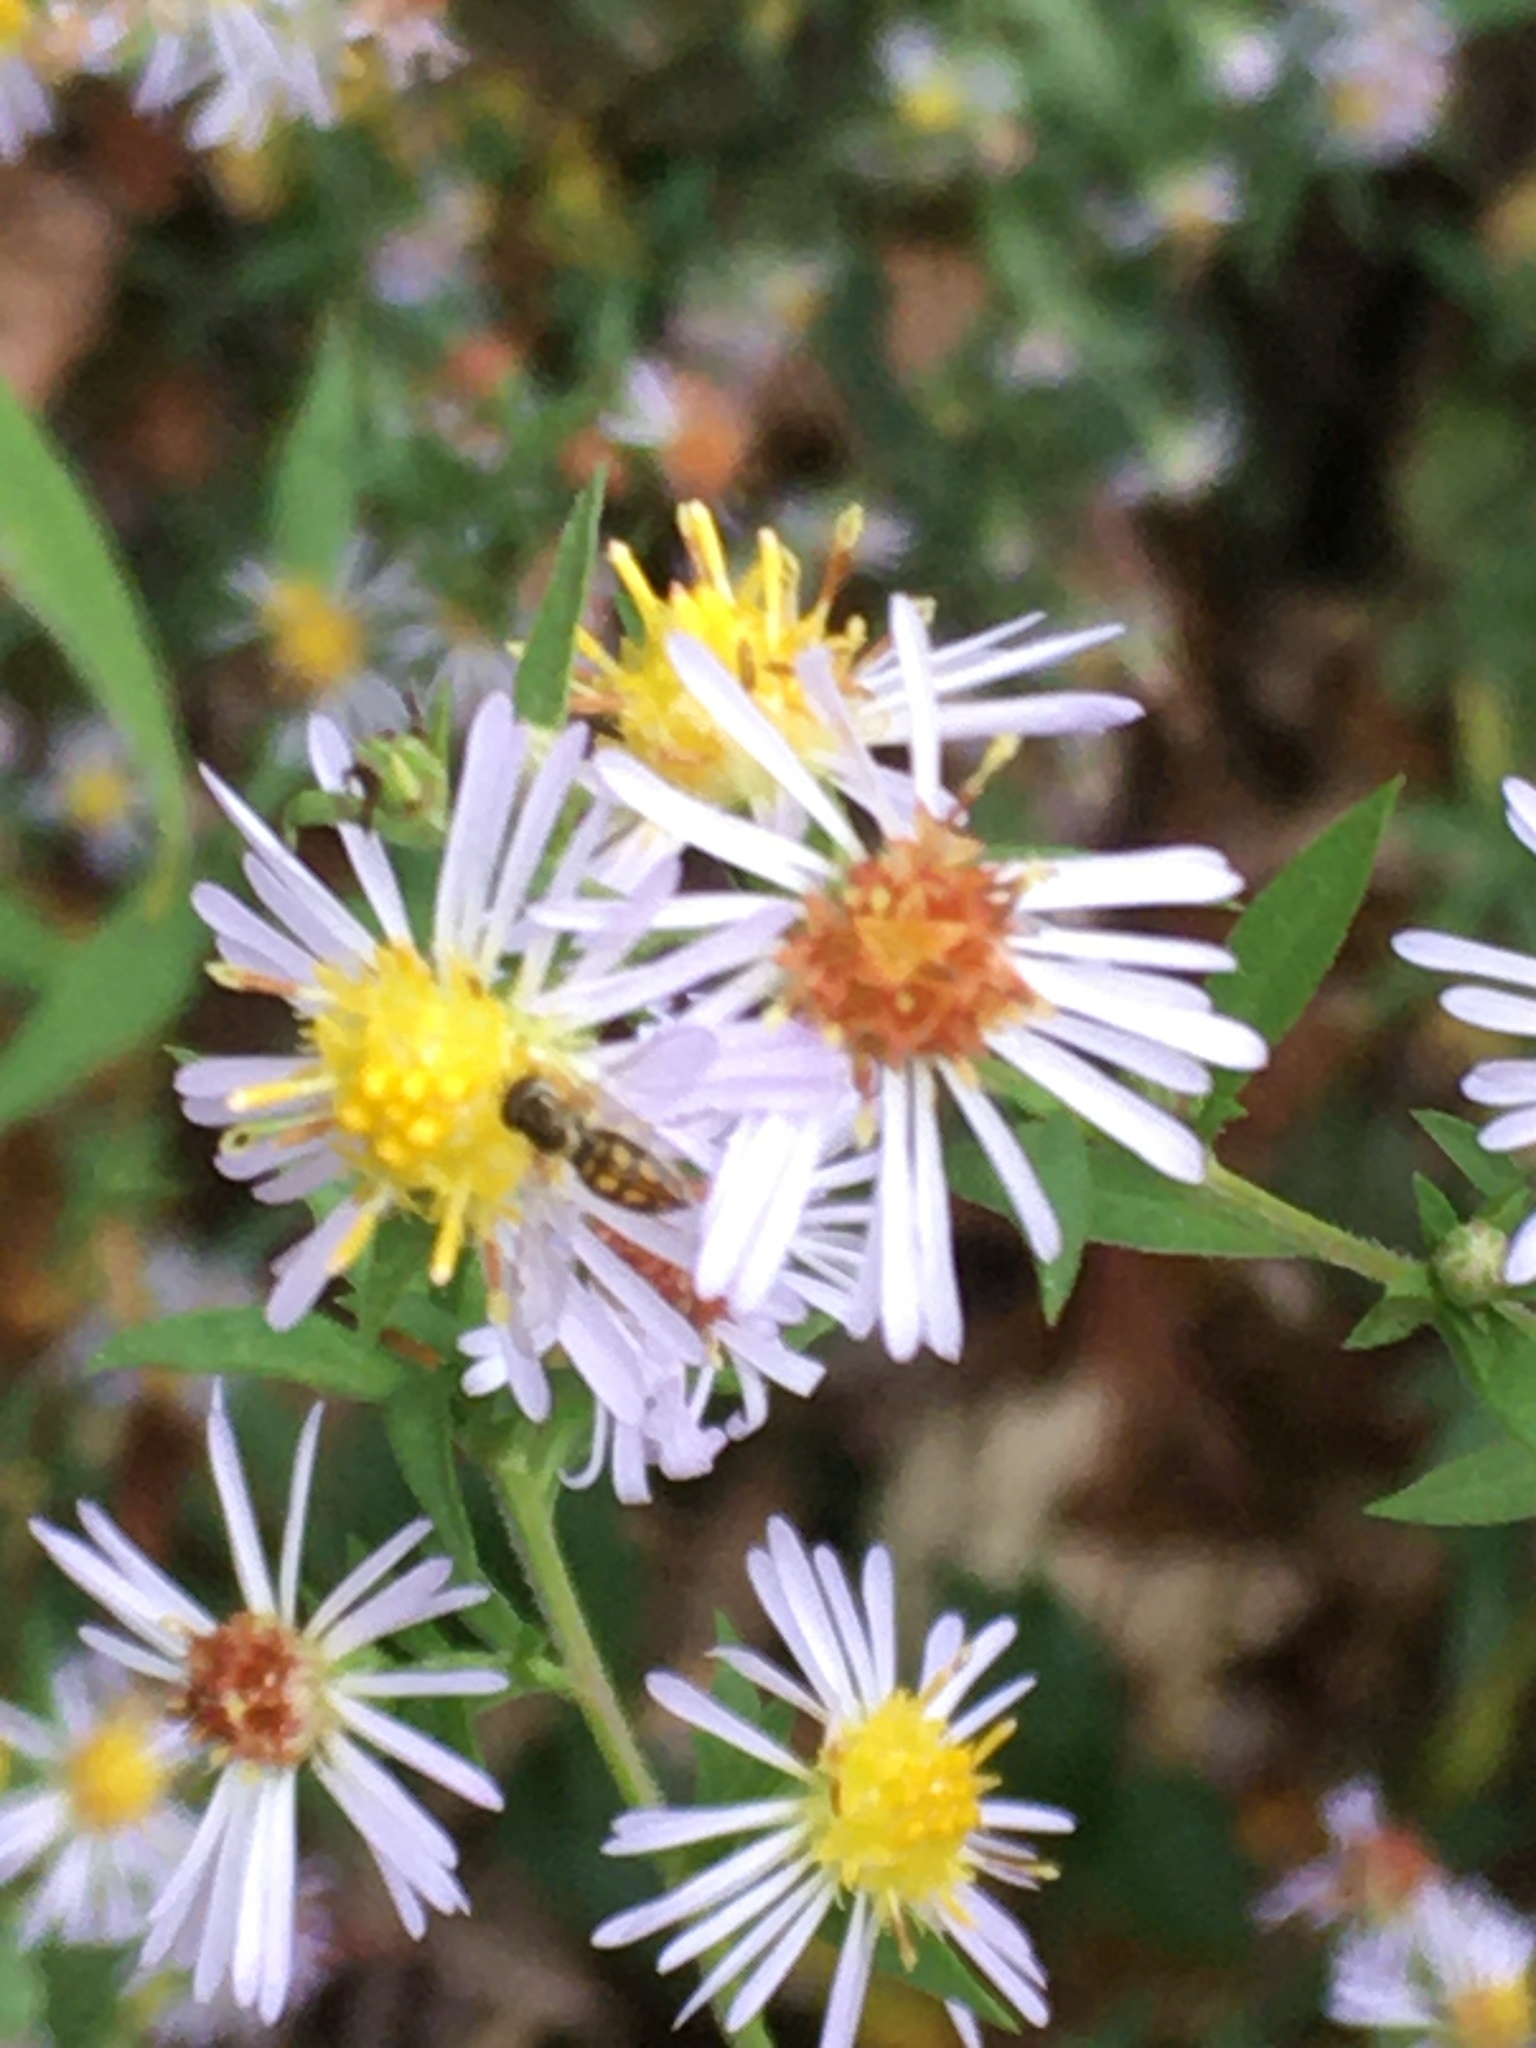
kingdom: Animalia
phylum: Arthropoda
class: Insecta
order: Diptera
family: Syrphidae
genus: Toxomerus
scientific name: Toxomerus marginatus
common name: Syrphid fly
